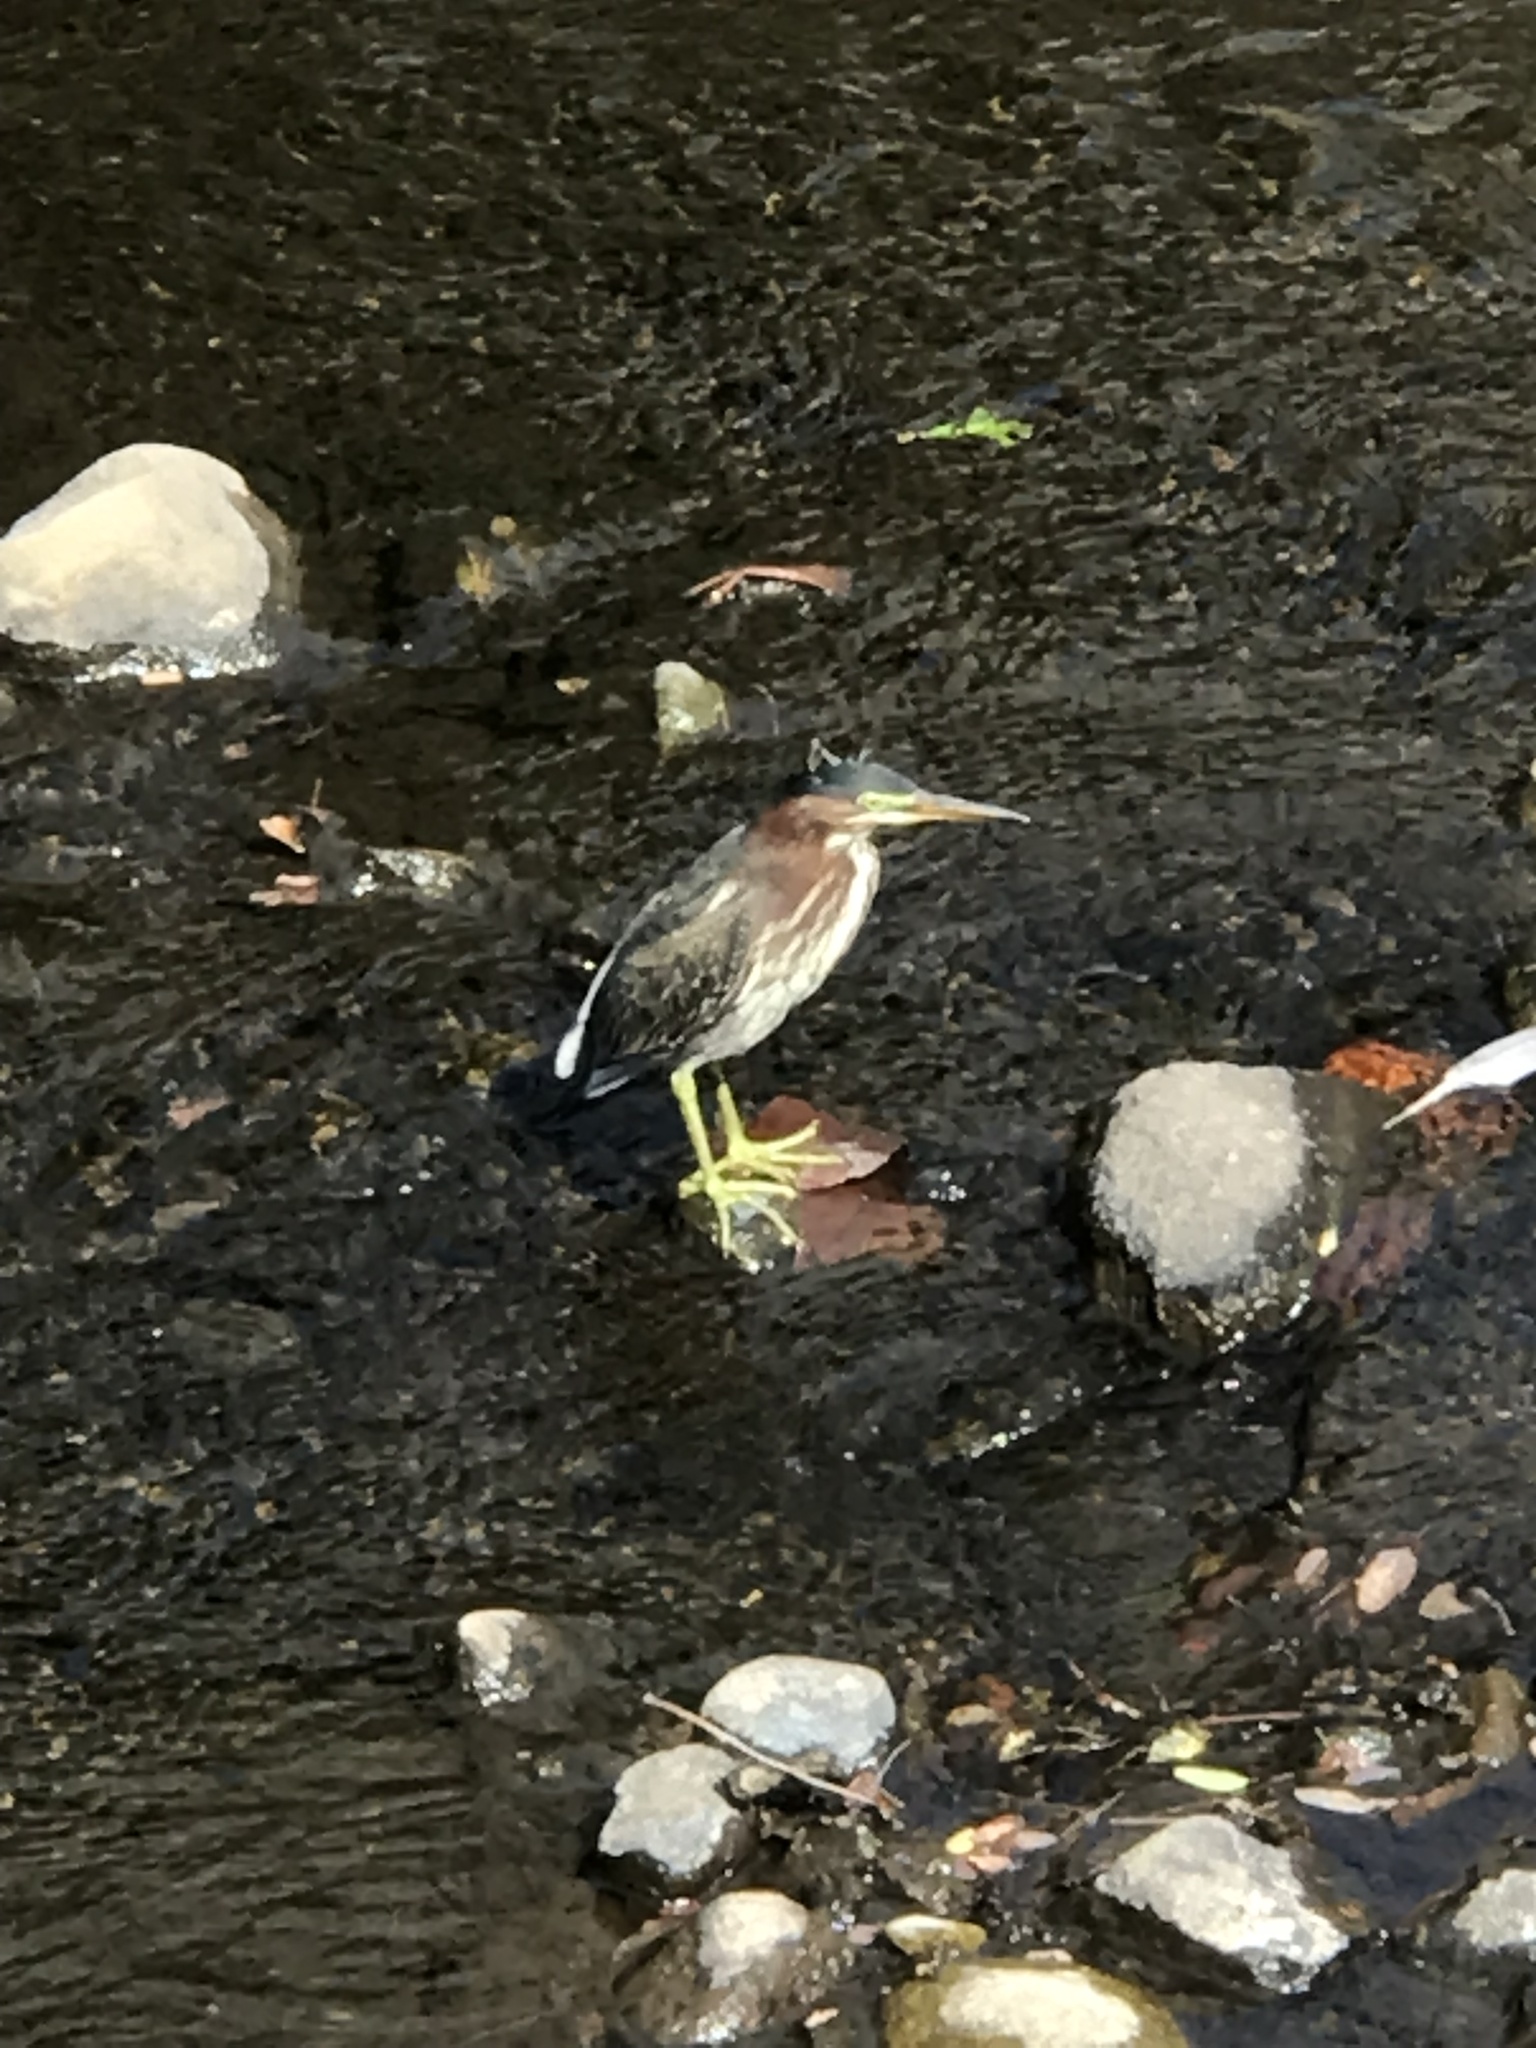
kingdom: Animalia
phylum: Chordata
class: Aves
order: Pelecaniformes
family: Ardeidae
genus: Butorides
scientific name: Butorides virescens
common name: Green heron
